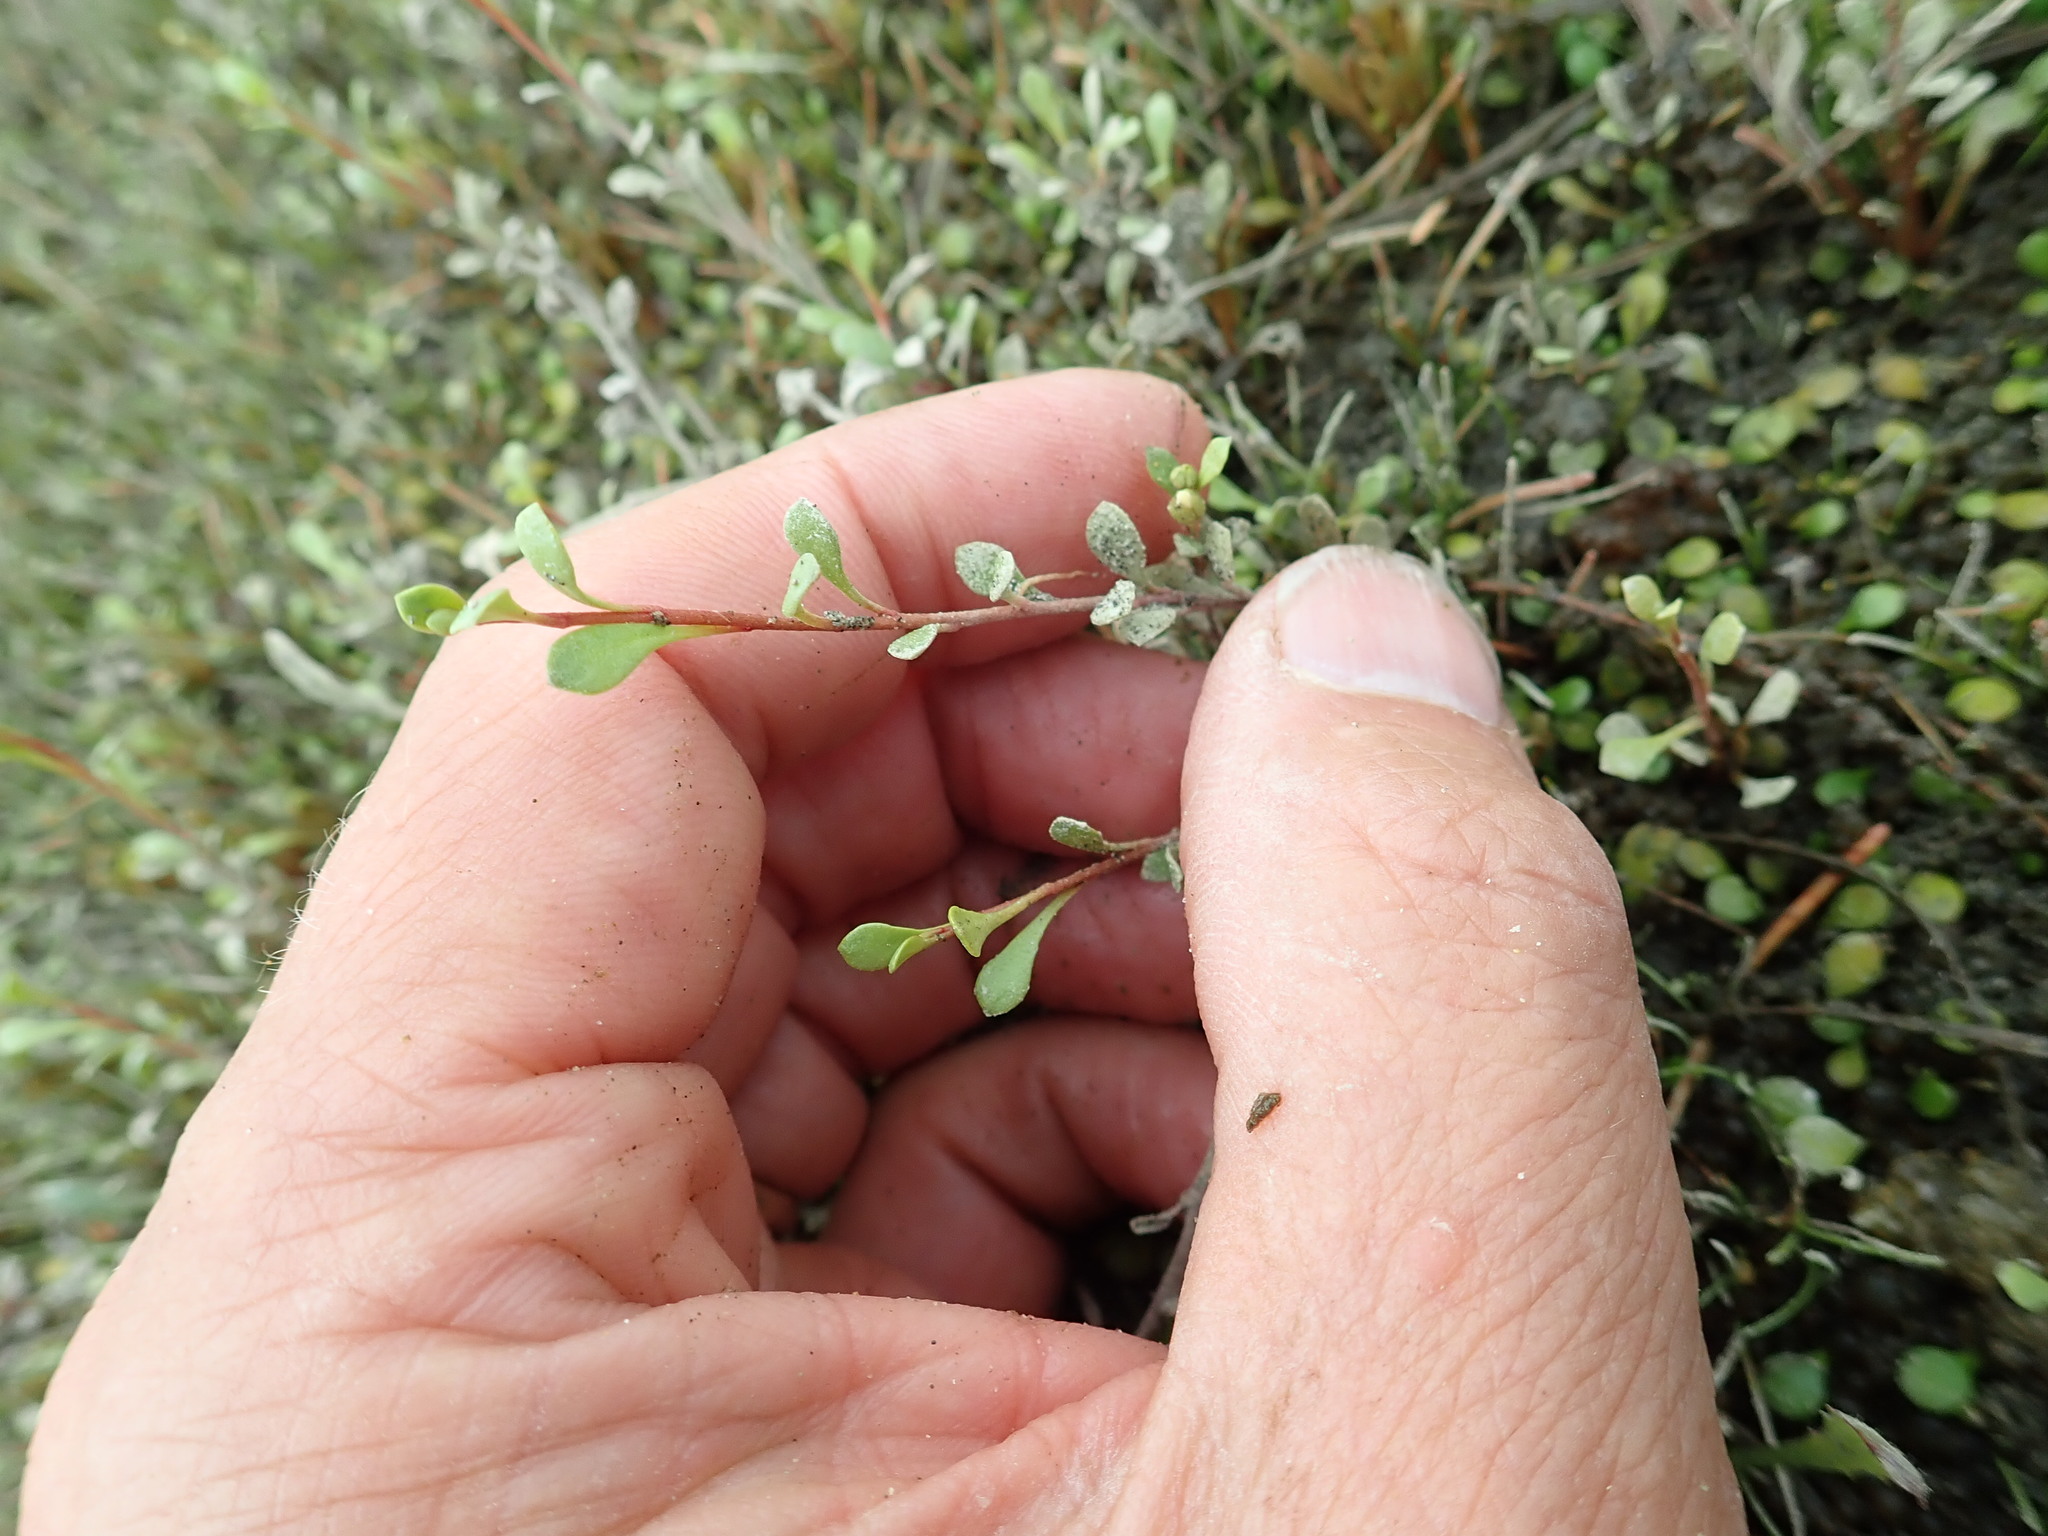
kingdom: Plantae
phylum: Tracheophyta
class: Magnoliopsida
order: Ericales
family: Primulaceae
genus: Samolus
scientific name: Samolus repens
